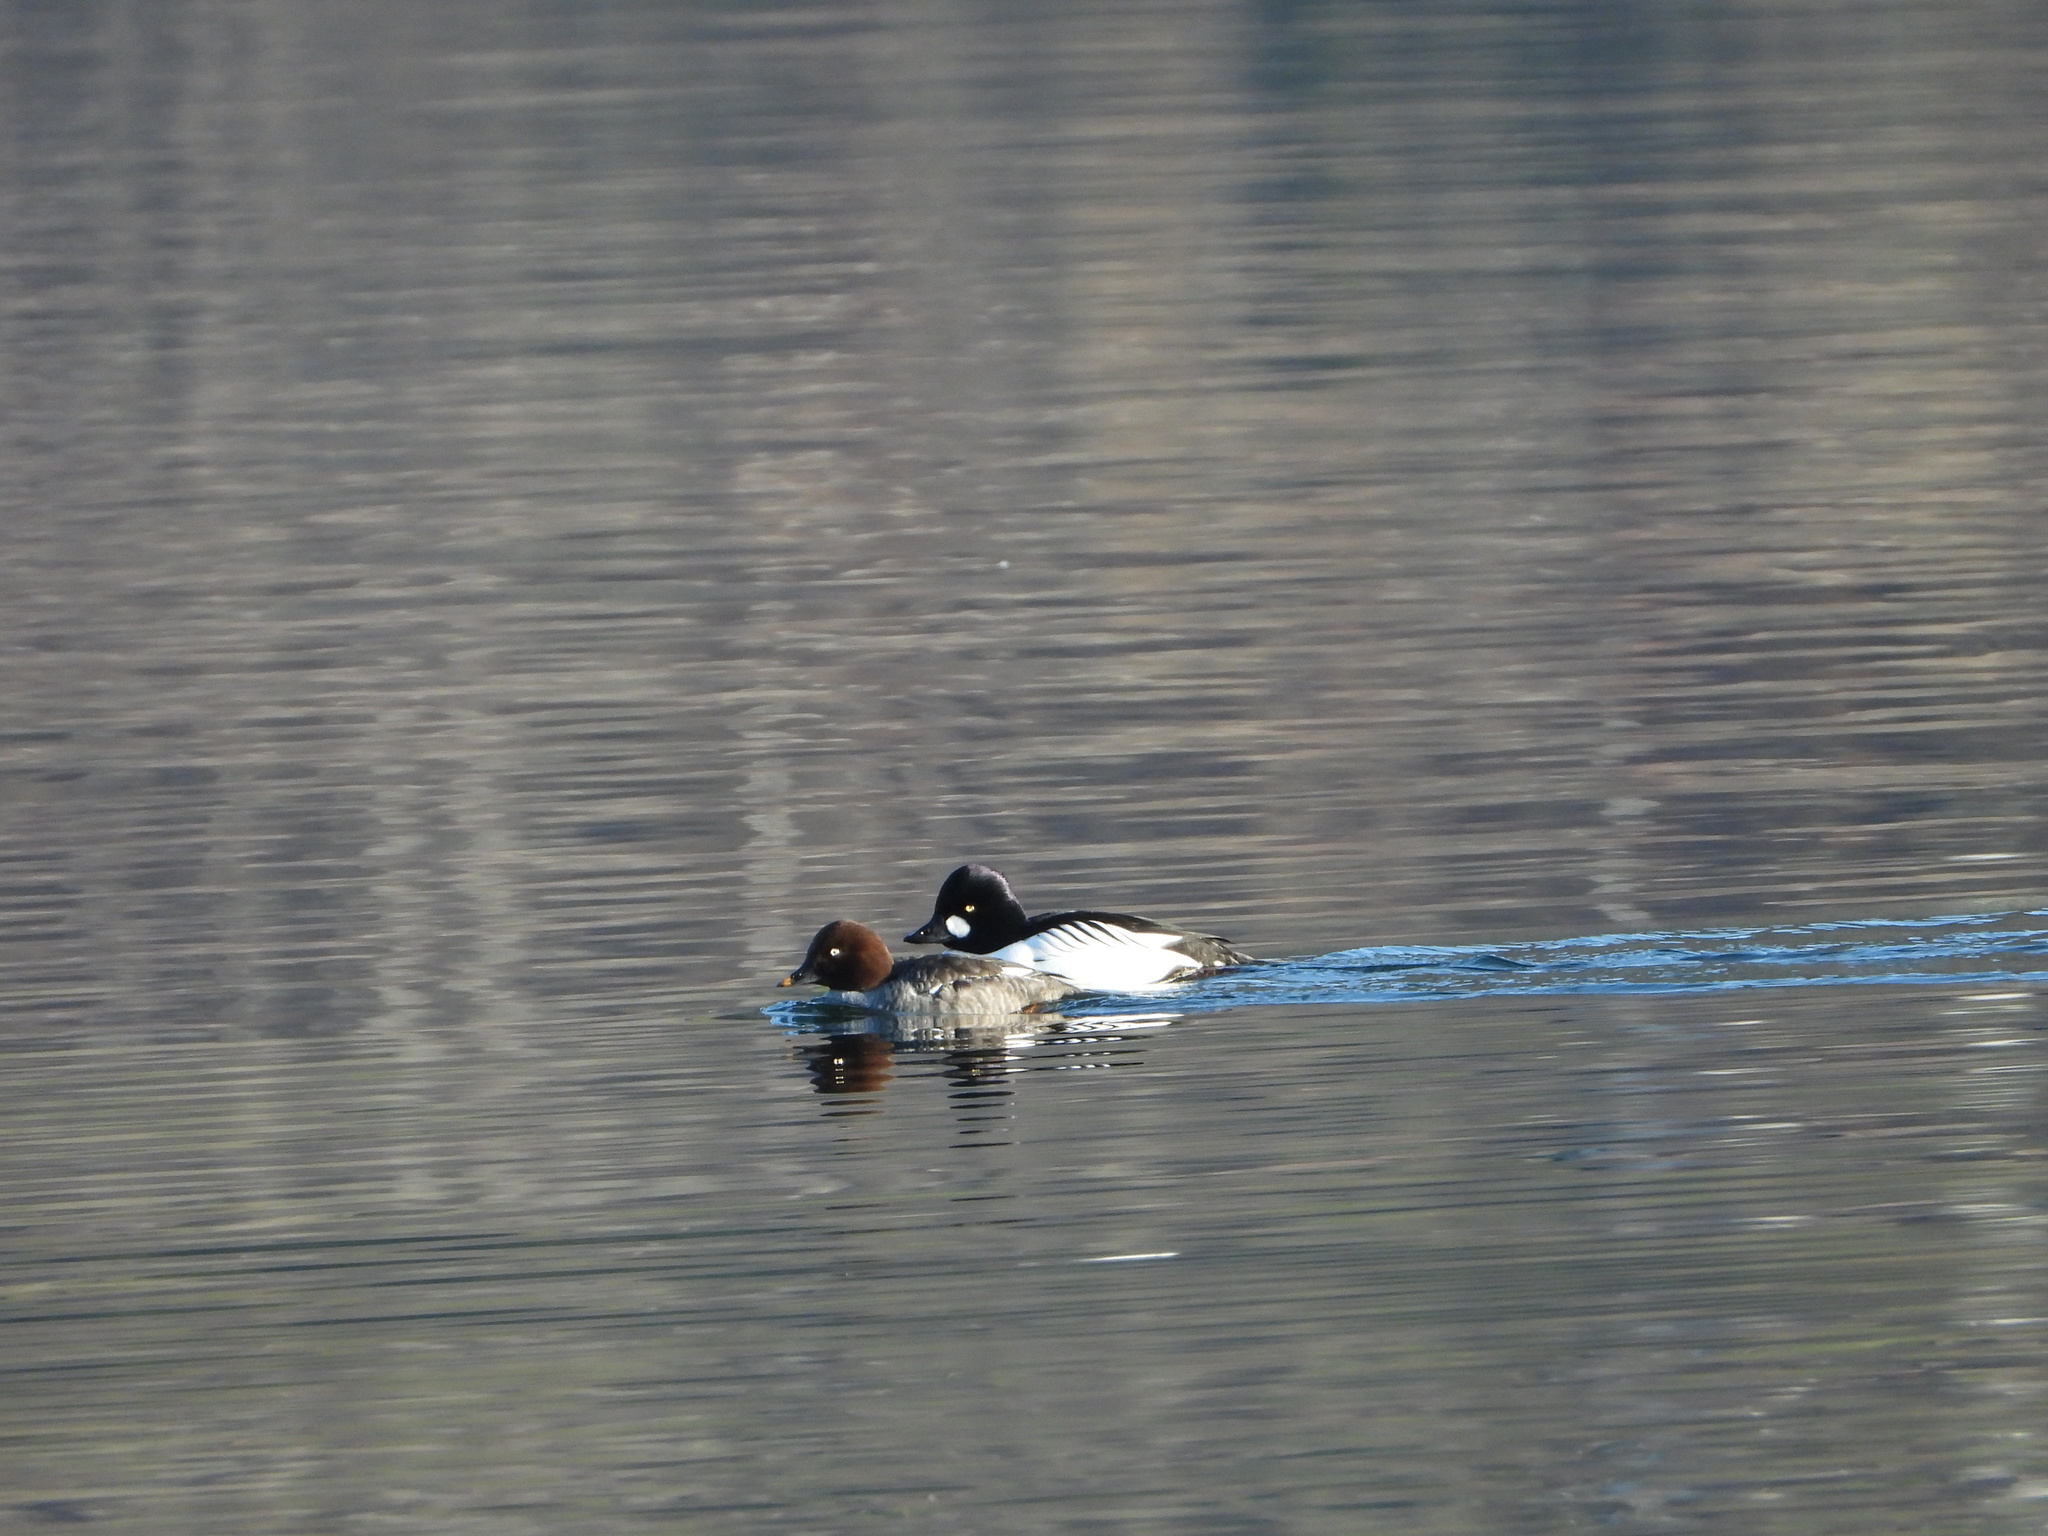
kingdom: Animalia
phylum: Chordata
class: Aves
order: Anseriformes
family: Anatidae
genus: Bucephala
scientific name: Bucephala clangula
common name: Common goldeneye
